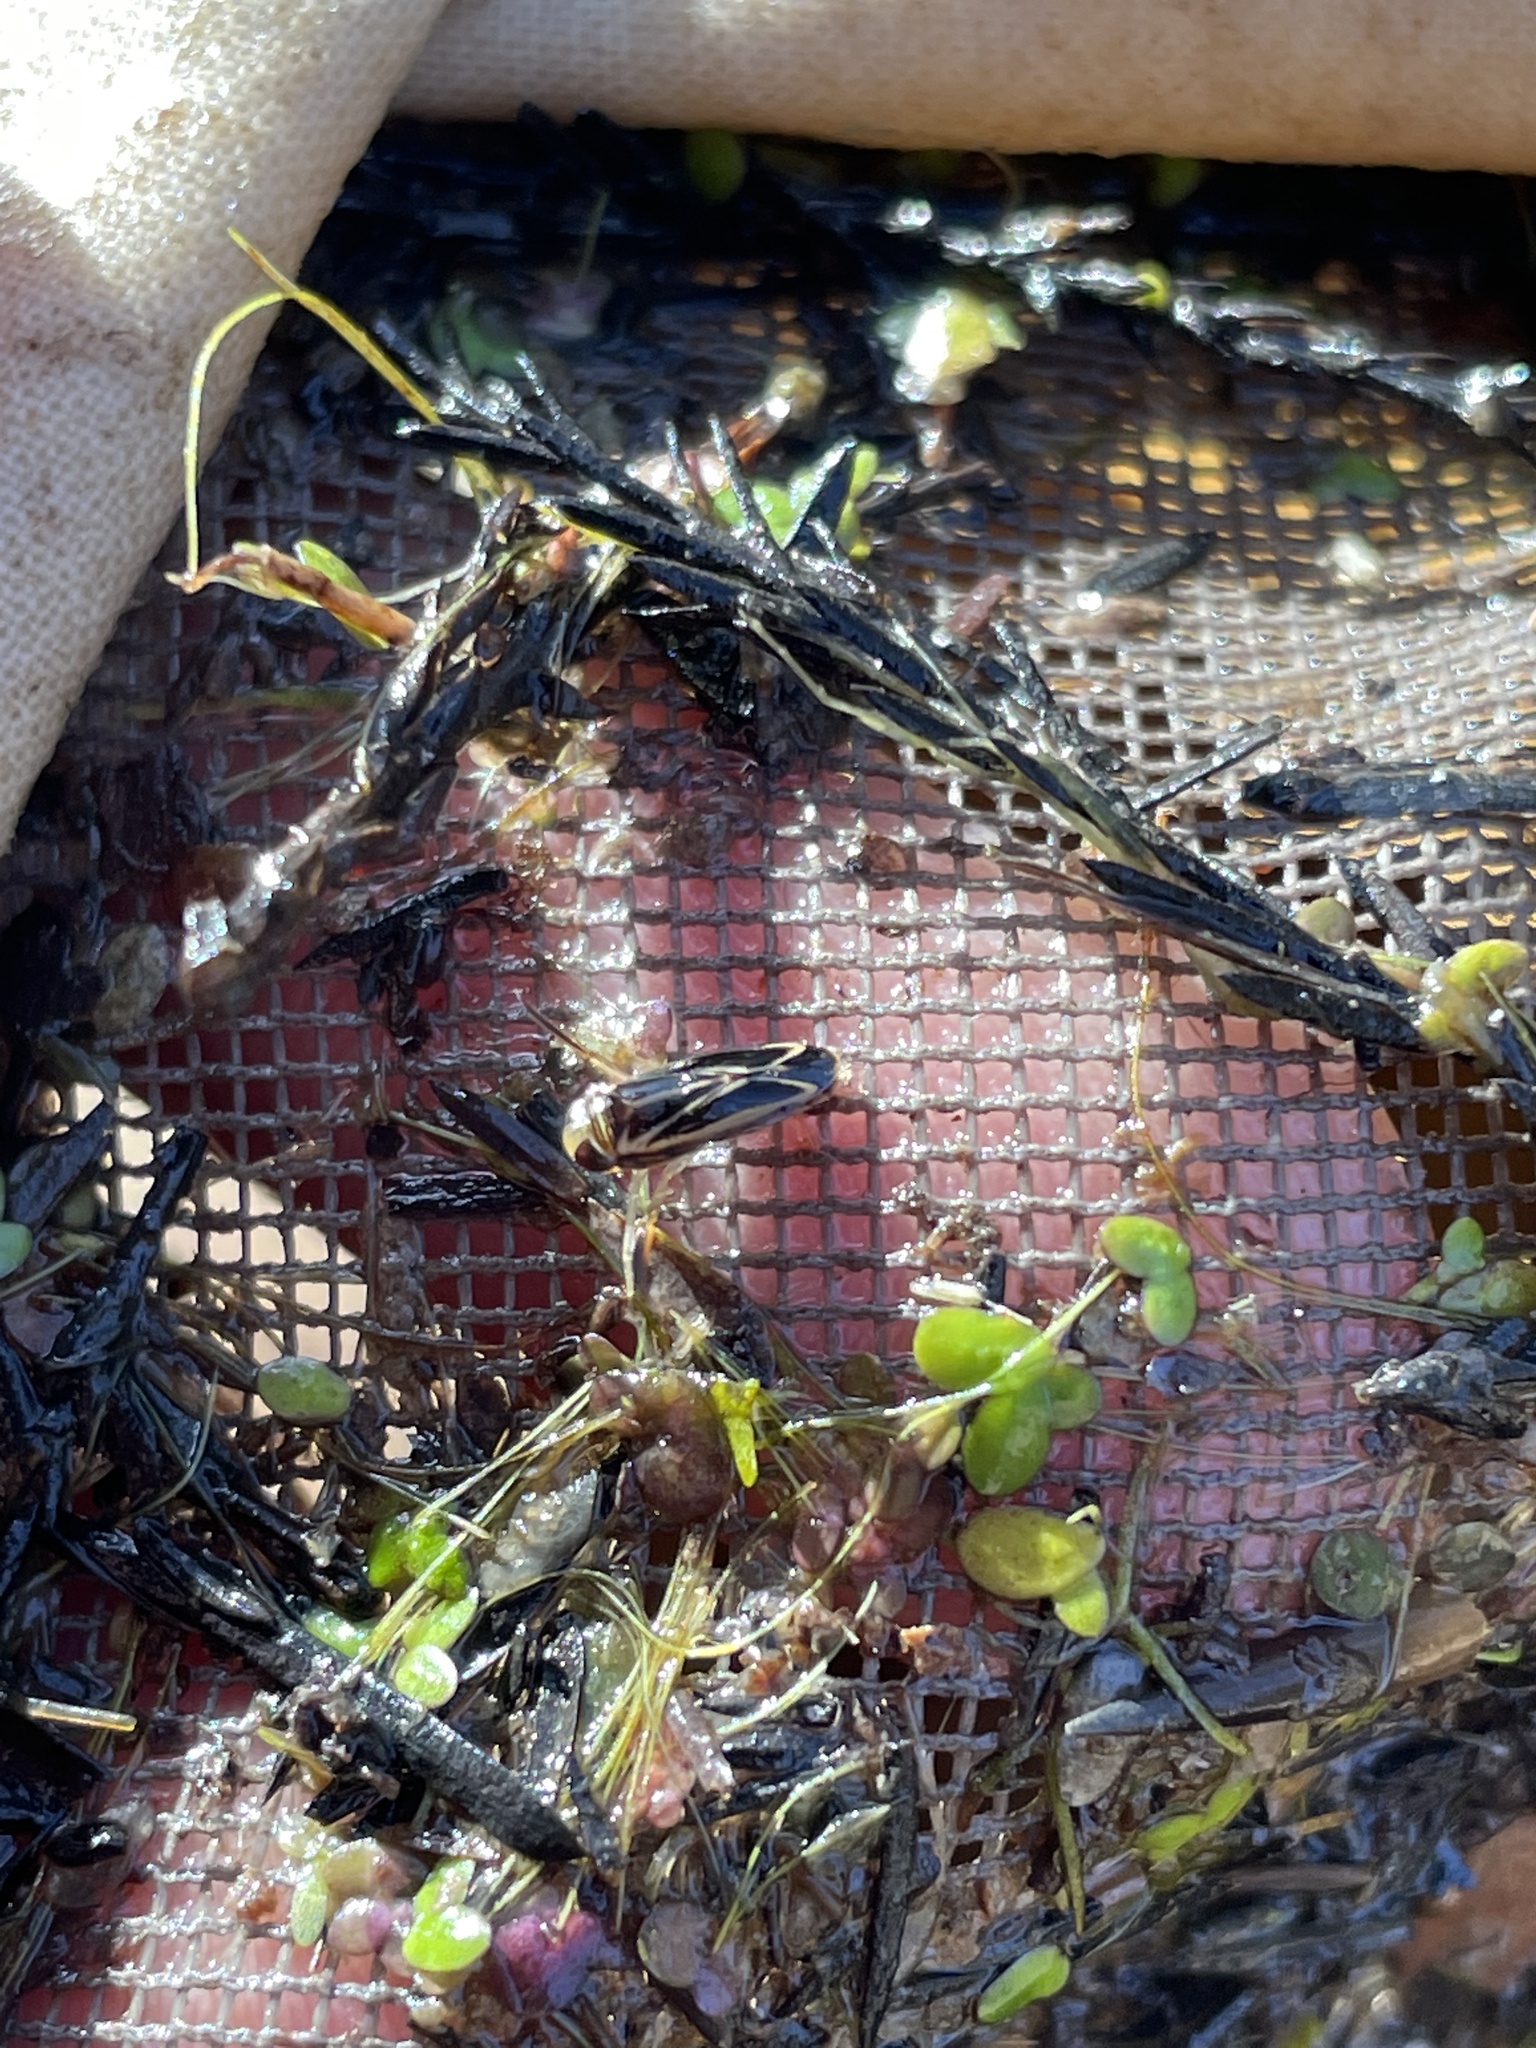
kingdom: Animalia
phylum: Arthropoda
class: Insecta
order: Hemiptera
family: Corixidae
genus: Sigara
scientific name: Sigara hydatotrephes
